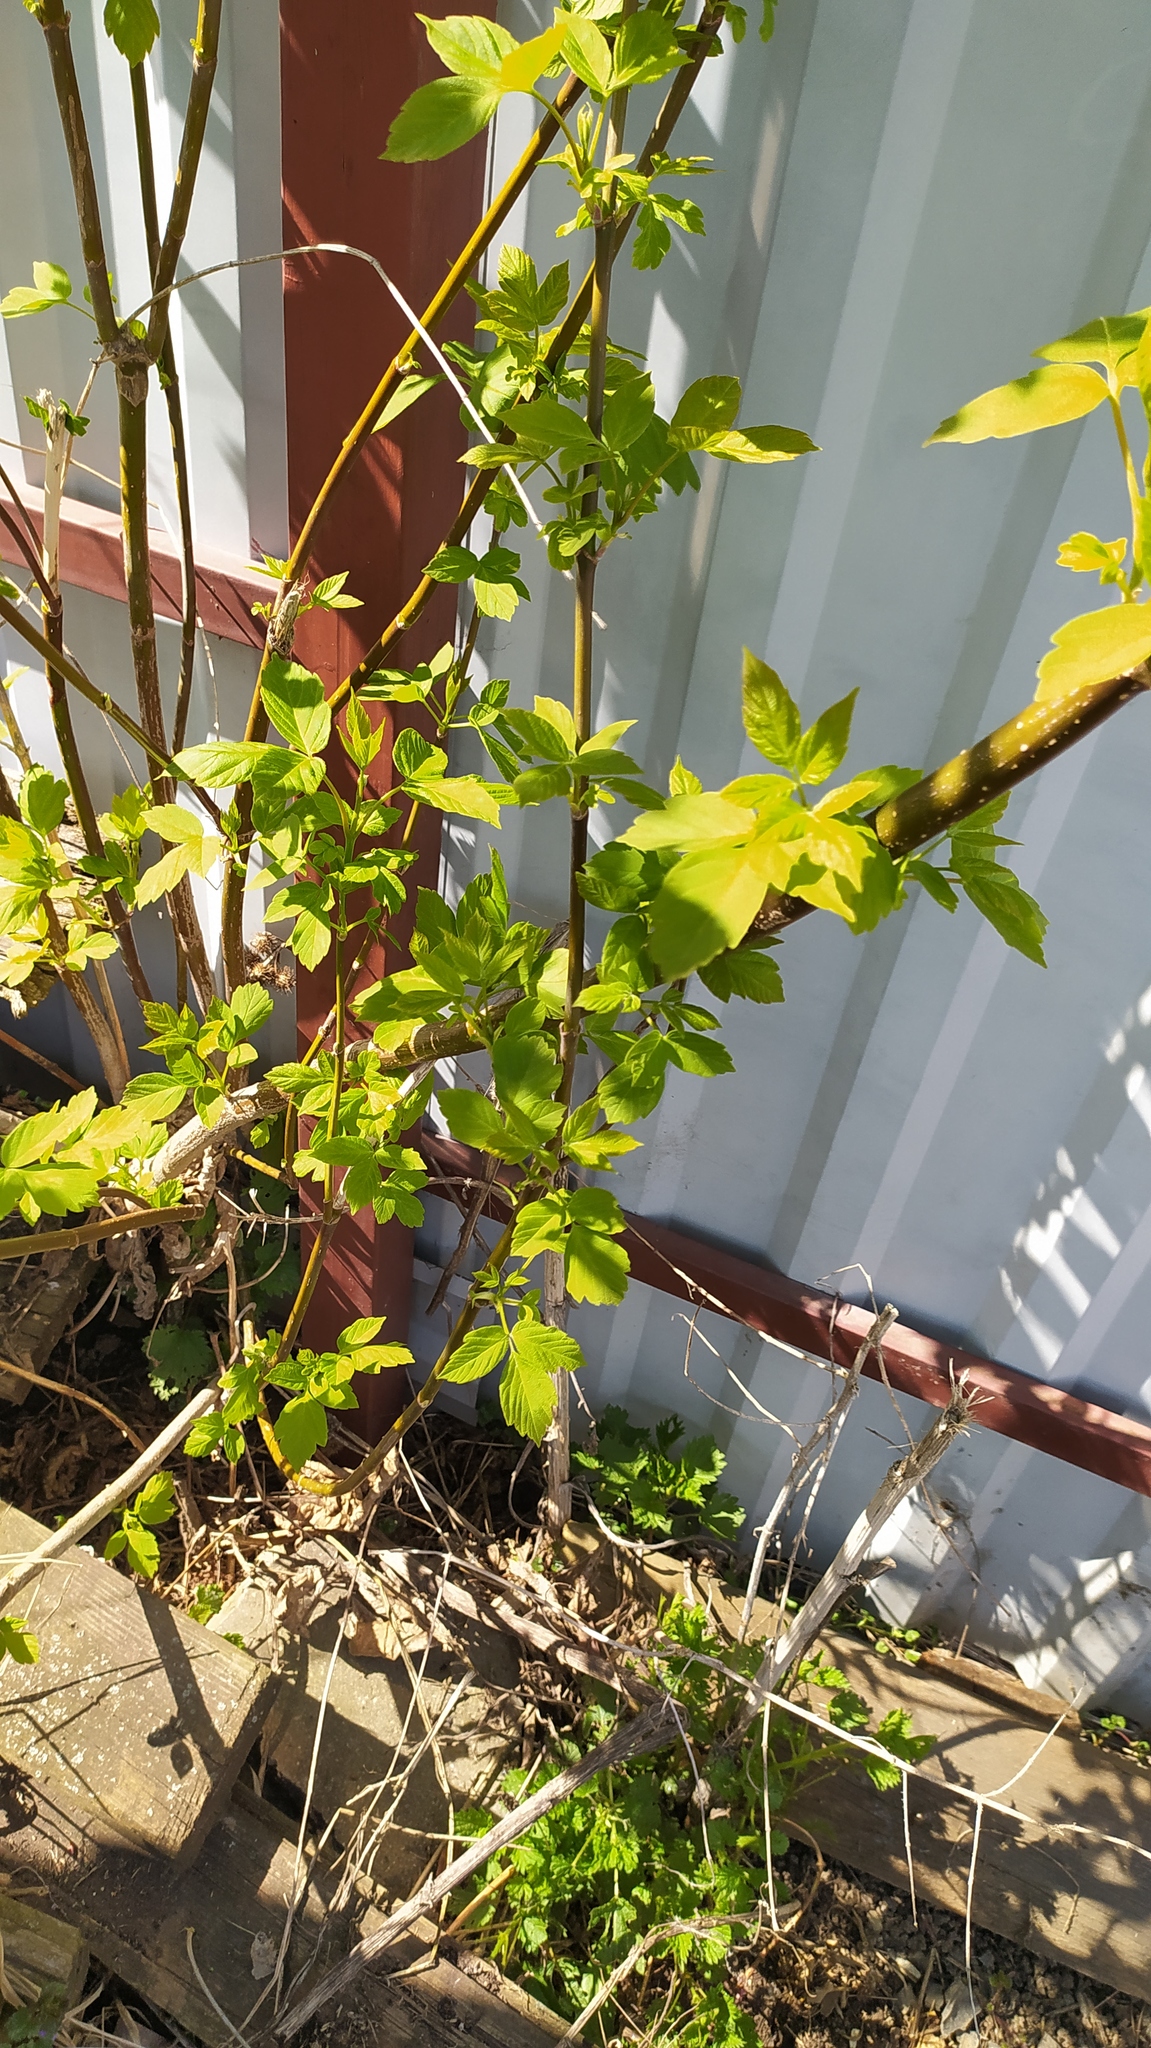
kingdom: Plantae
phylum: Tracheophyta
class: Magnoliopsida
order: Sapindales
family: Sapindaceae
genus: Acer
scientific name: Acer negundo
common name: Ashleaf maple
